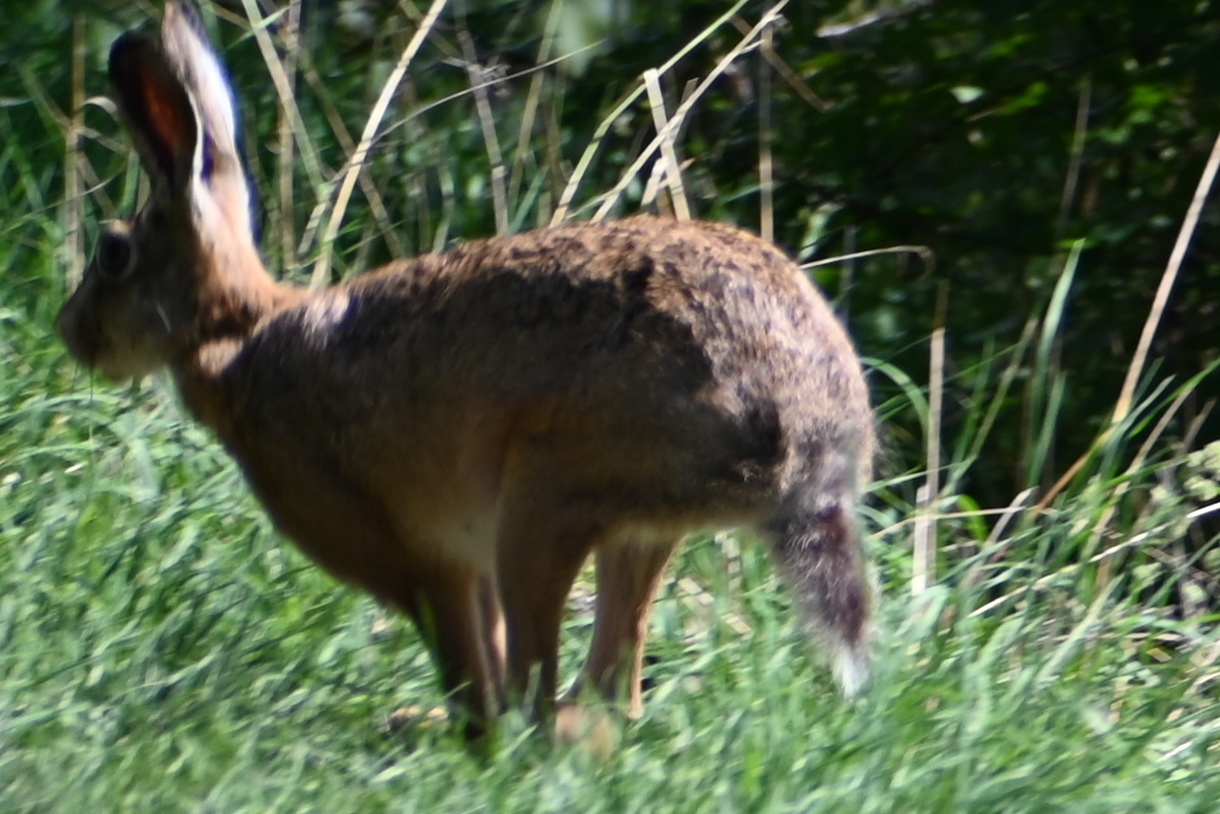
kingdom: Animalia
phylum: Chordata
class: Mammalia
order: Lagomorpha
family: Leporidae
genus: Lepus
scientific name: Lepus europaeus
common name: European hare
